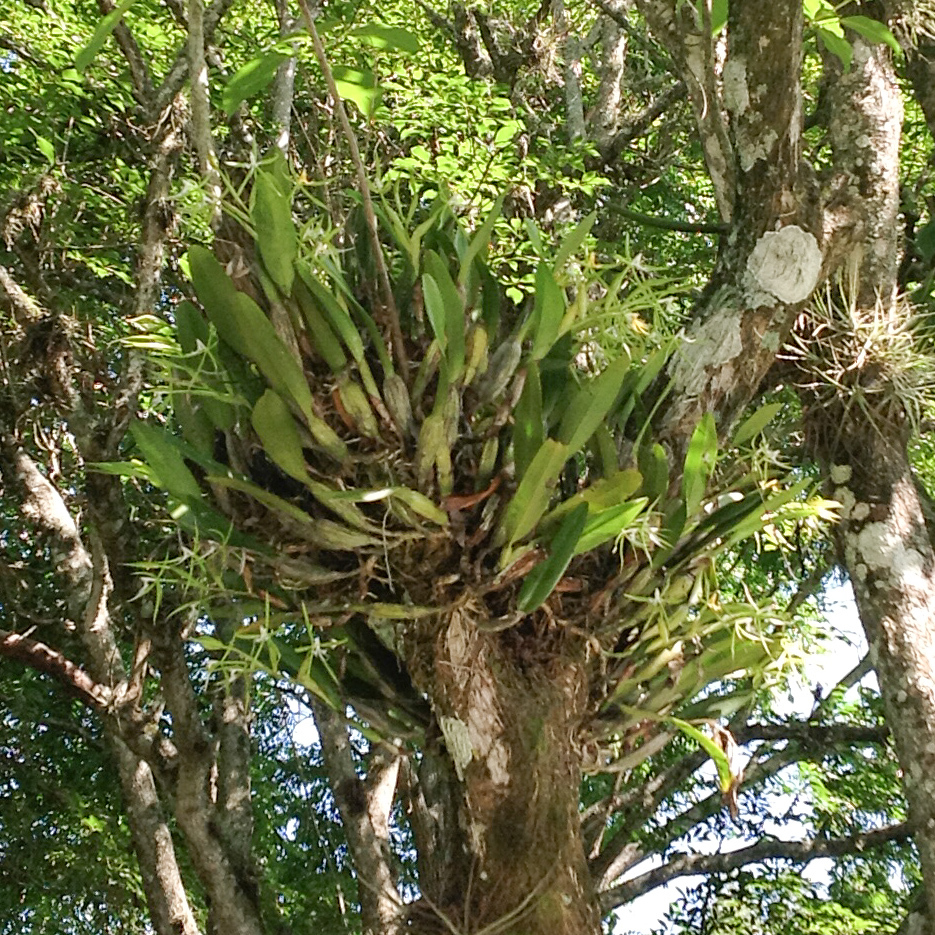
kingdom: Plantae
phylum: Tracheophyta
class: Liliopsida
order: Asparagales
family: Orchidaceae
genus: Epidendrum
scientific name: Epidendrum ciliare
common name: Eyelash orchid
